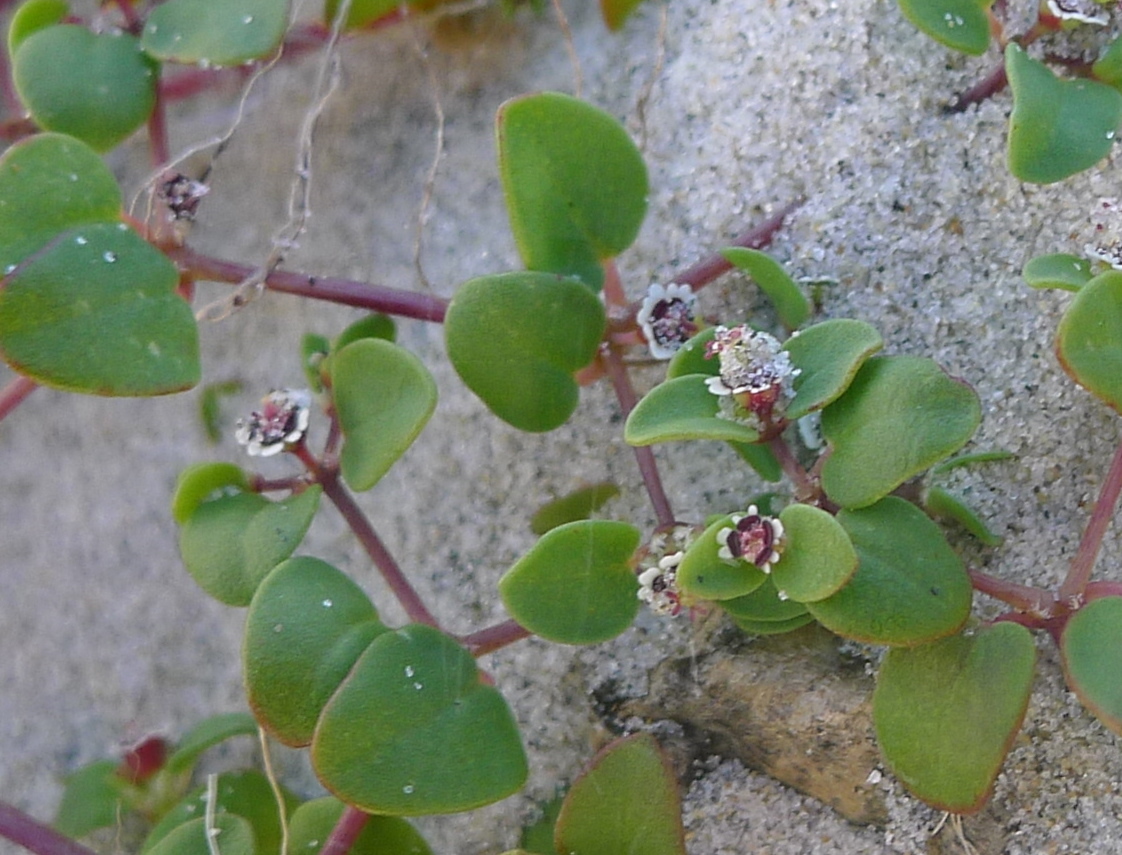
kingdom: Plantae
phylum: Tracheophyta
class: Magnoliopsida
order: Malpighiales
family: Euphorbiaceae
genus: Euphorbia
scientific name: Euphorbia vizcainensis
